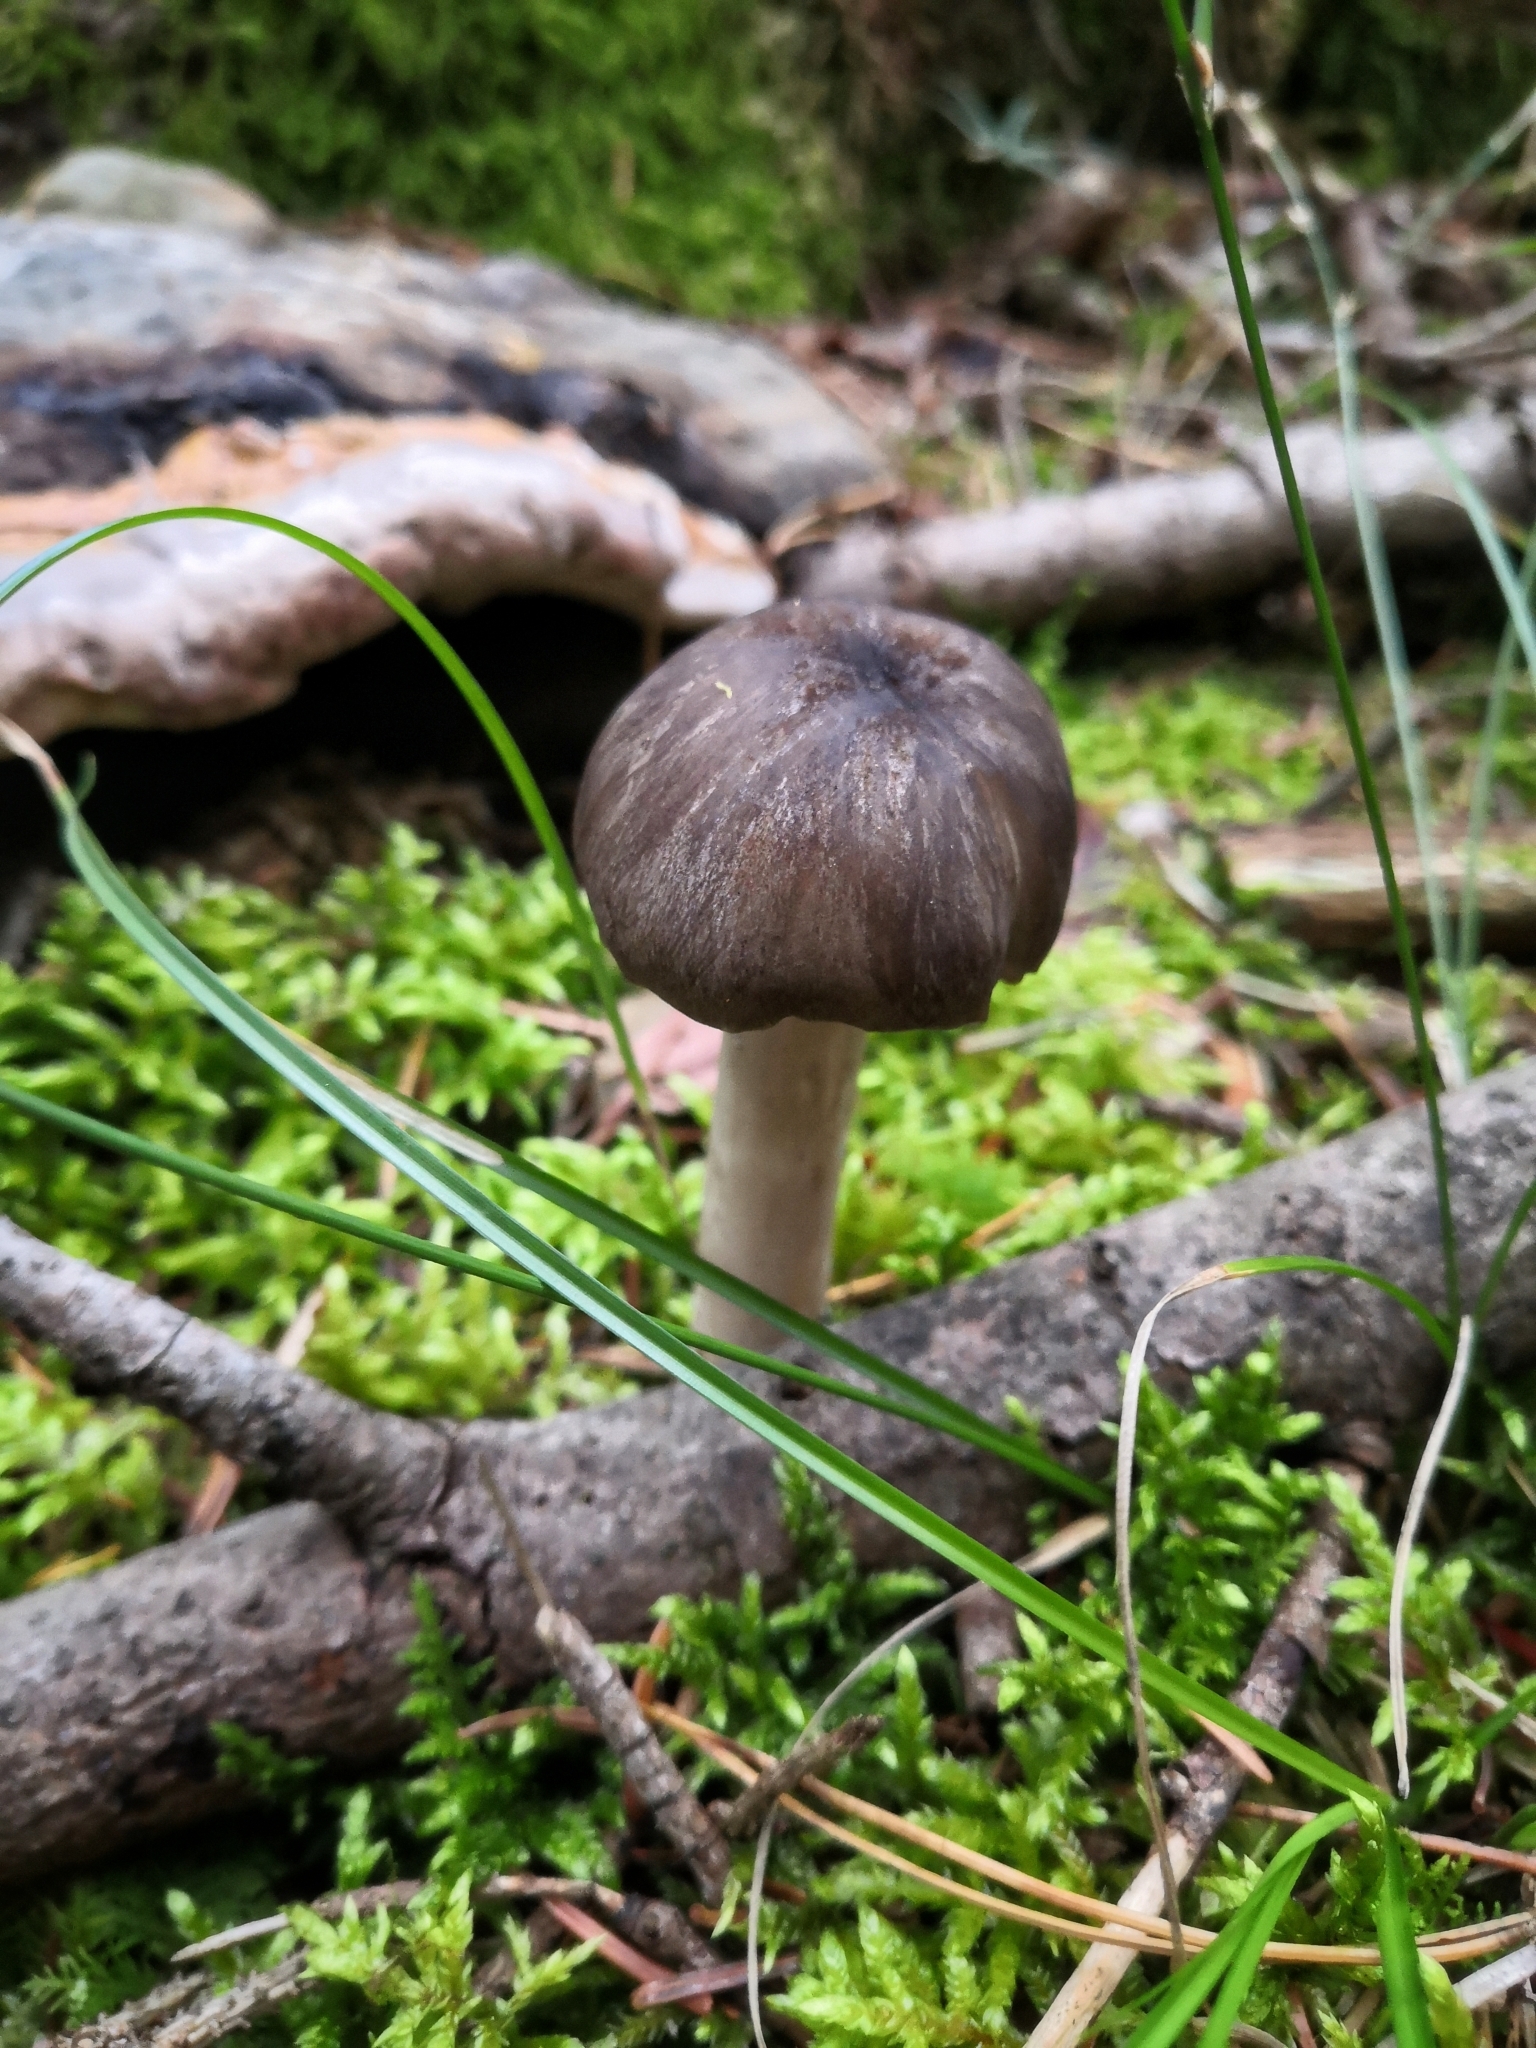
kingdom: Fungi
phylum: Basidiomycota
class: Agaricomycetes
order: Agaricales
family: Tricholomataceae
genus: Megacollybia
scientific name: Megacollybia platyphylla
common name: Whitelaced shank
